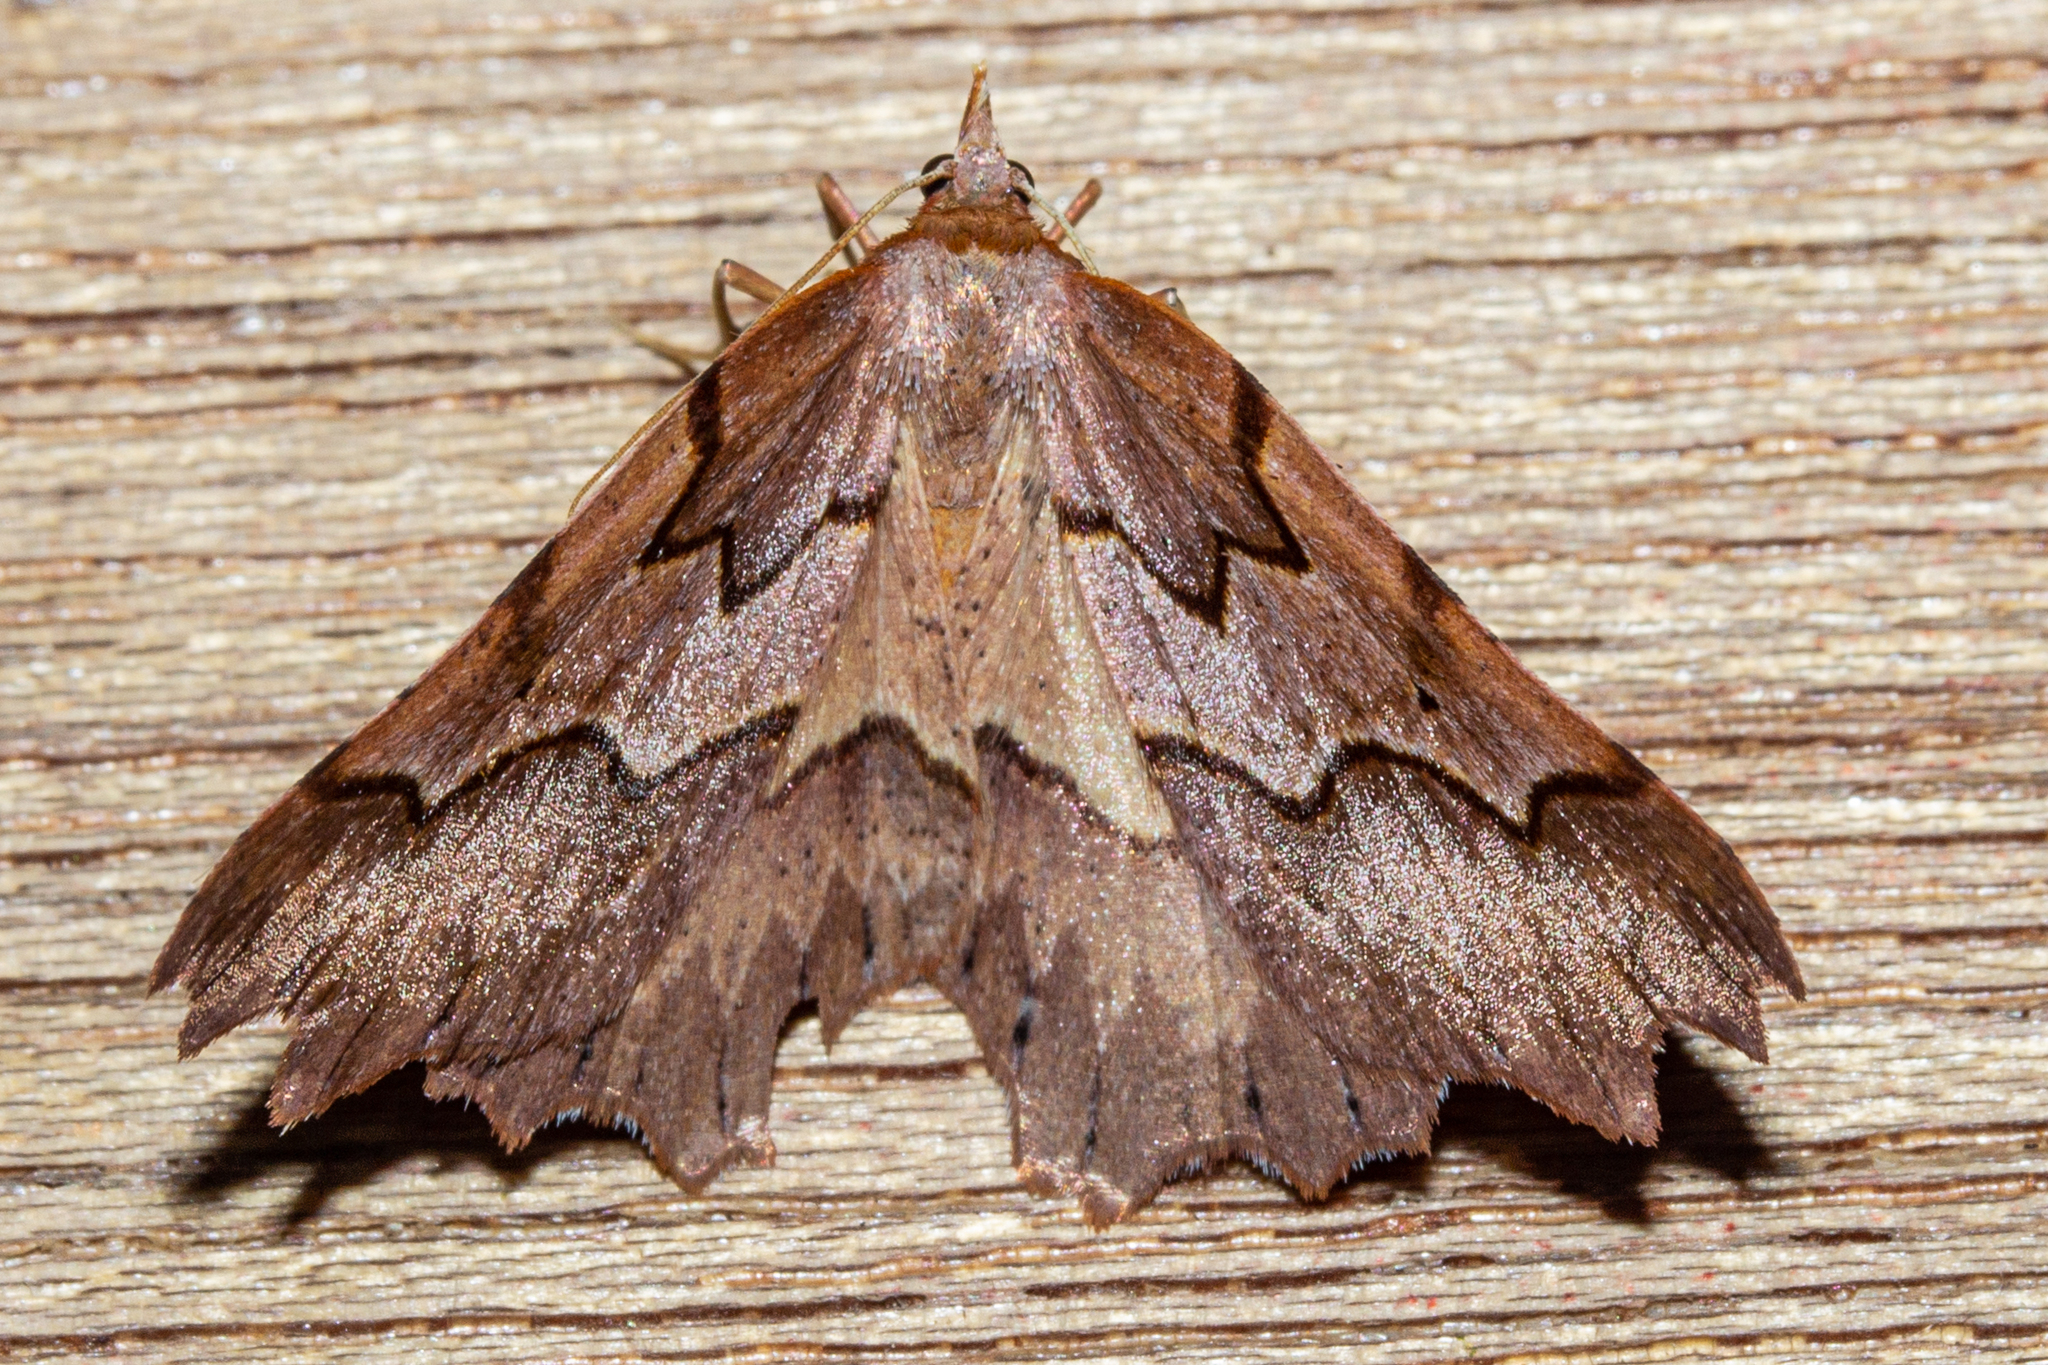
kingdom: Animalia
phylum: Arthropoda
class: Insecta
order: Lepidoptera
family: Geometridae
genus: Ischalis
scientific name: Ischalis fortinata
